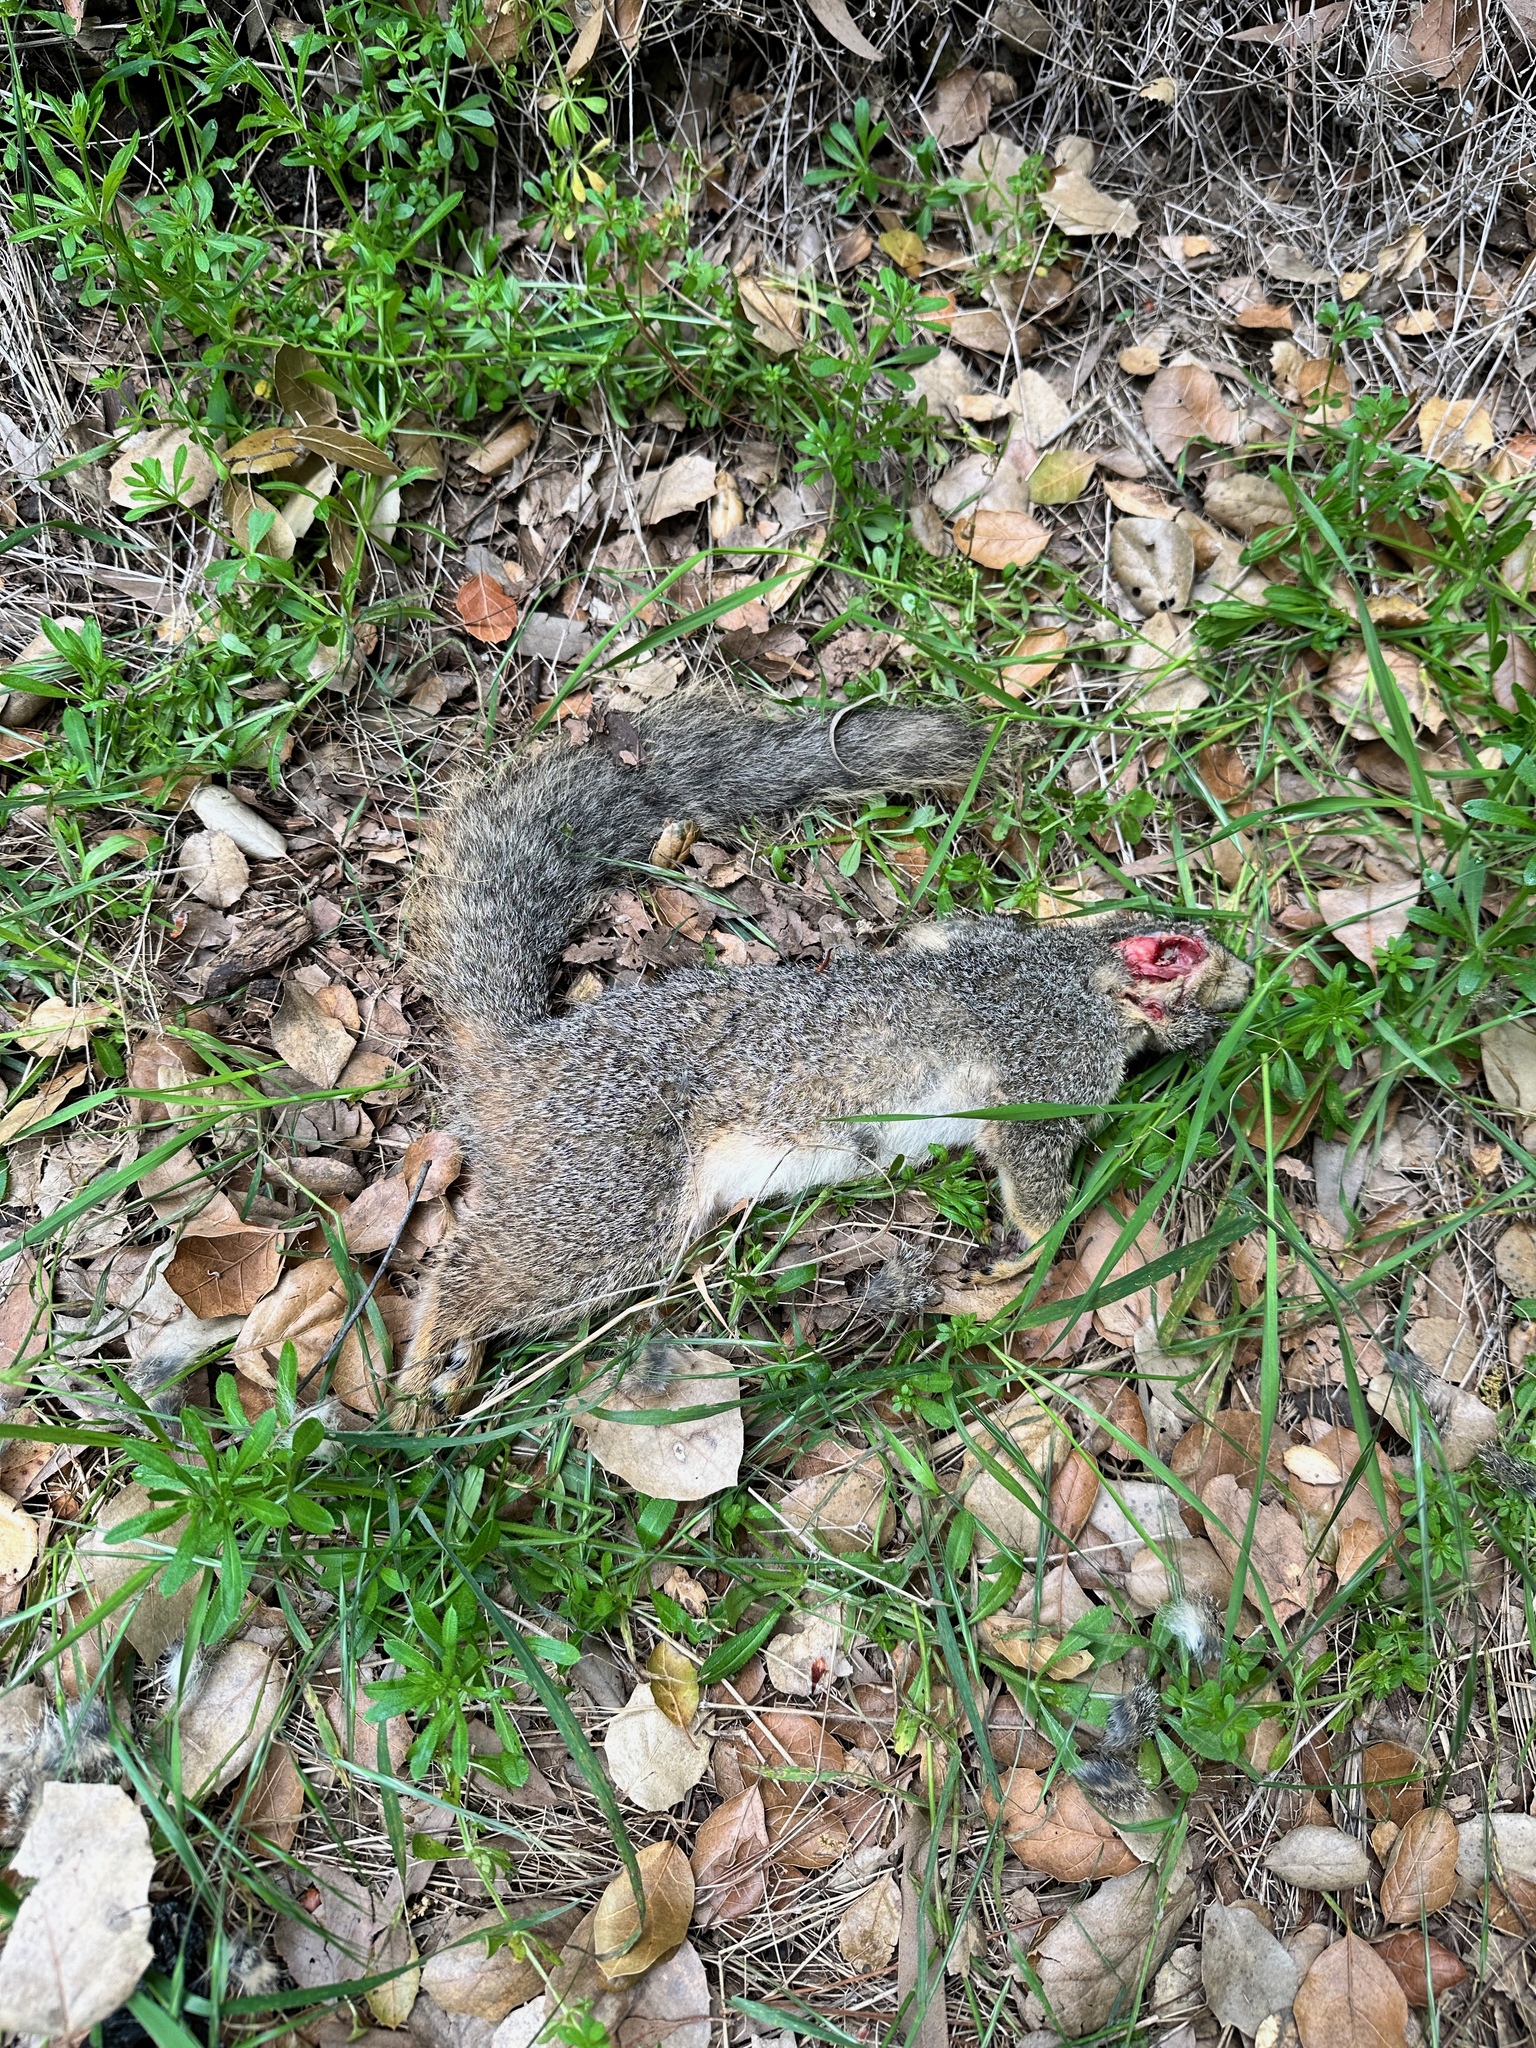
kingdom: Animalia
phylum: Chordata
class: Mammalia
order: Rodentia
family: Sciuridae
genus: Sciurus
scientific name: Sciurus niger
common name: Fox squirrel
